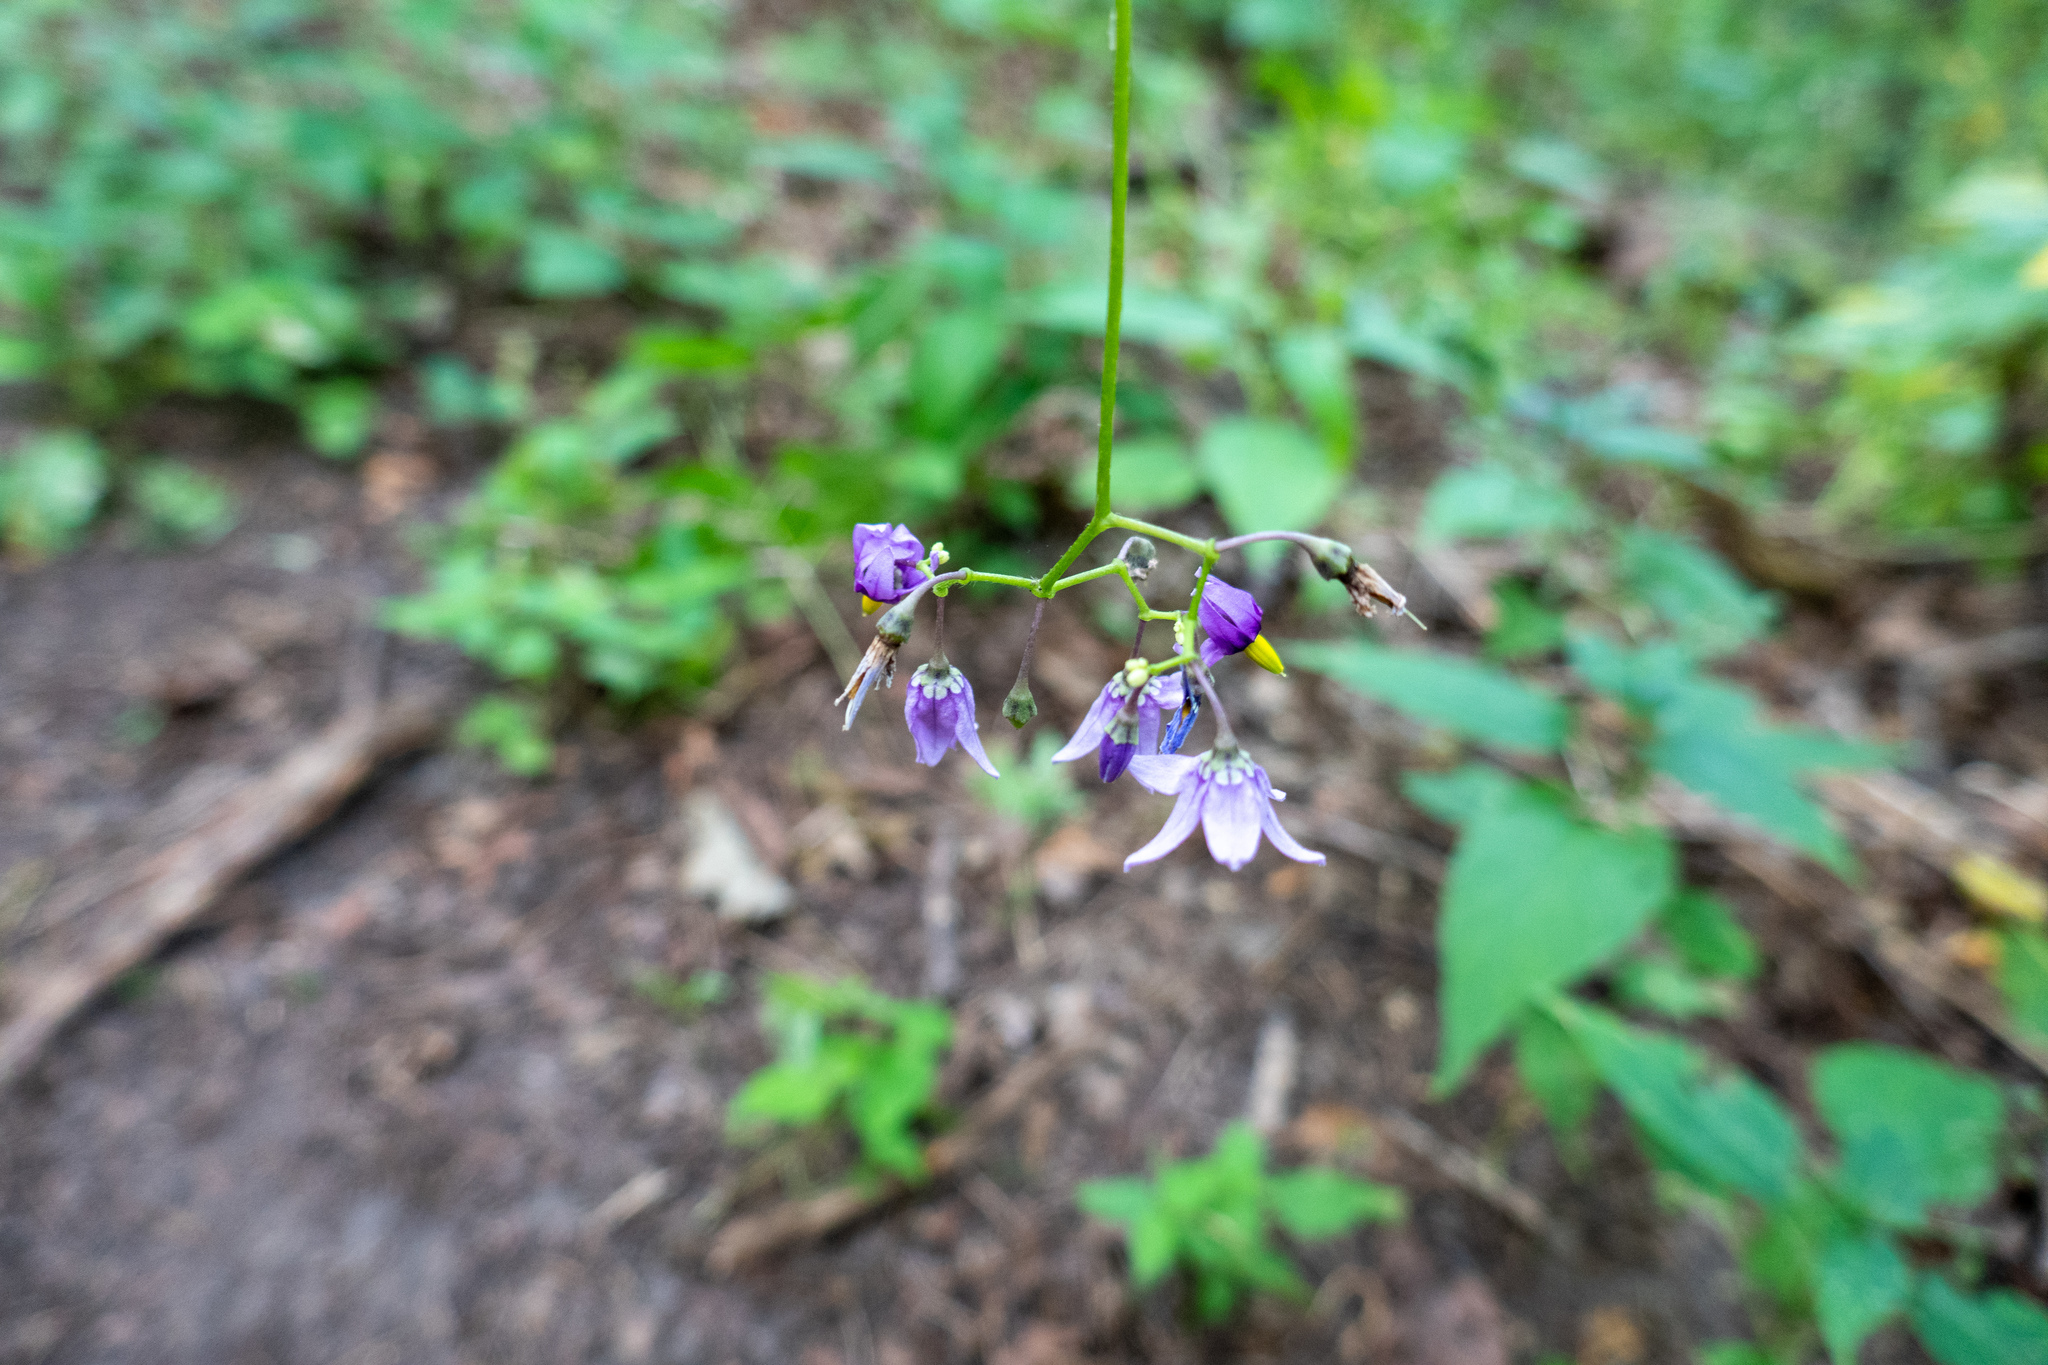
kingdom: Plantae
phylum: Tracheophyta
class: Magnoliopsida
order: Solanales
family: Solanaceae
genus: Solanum
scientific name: Solanum dulcamara
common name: Climbing nightshade
